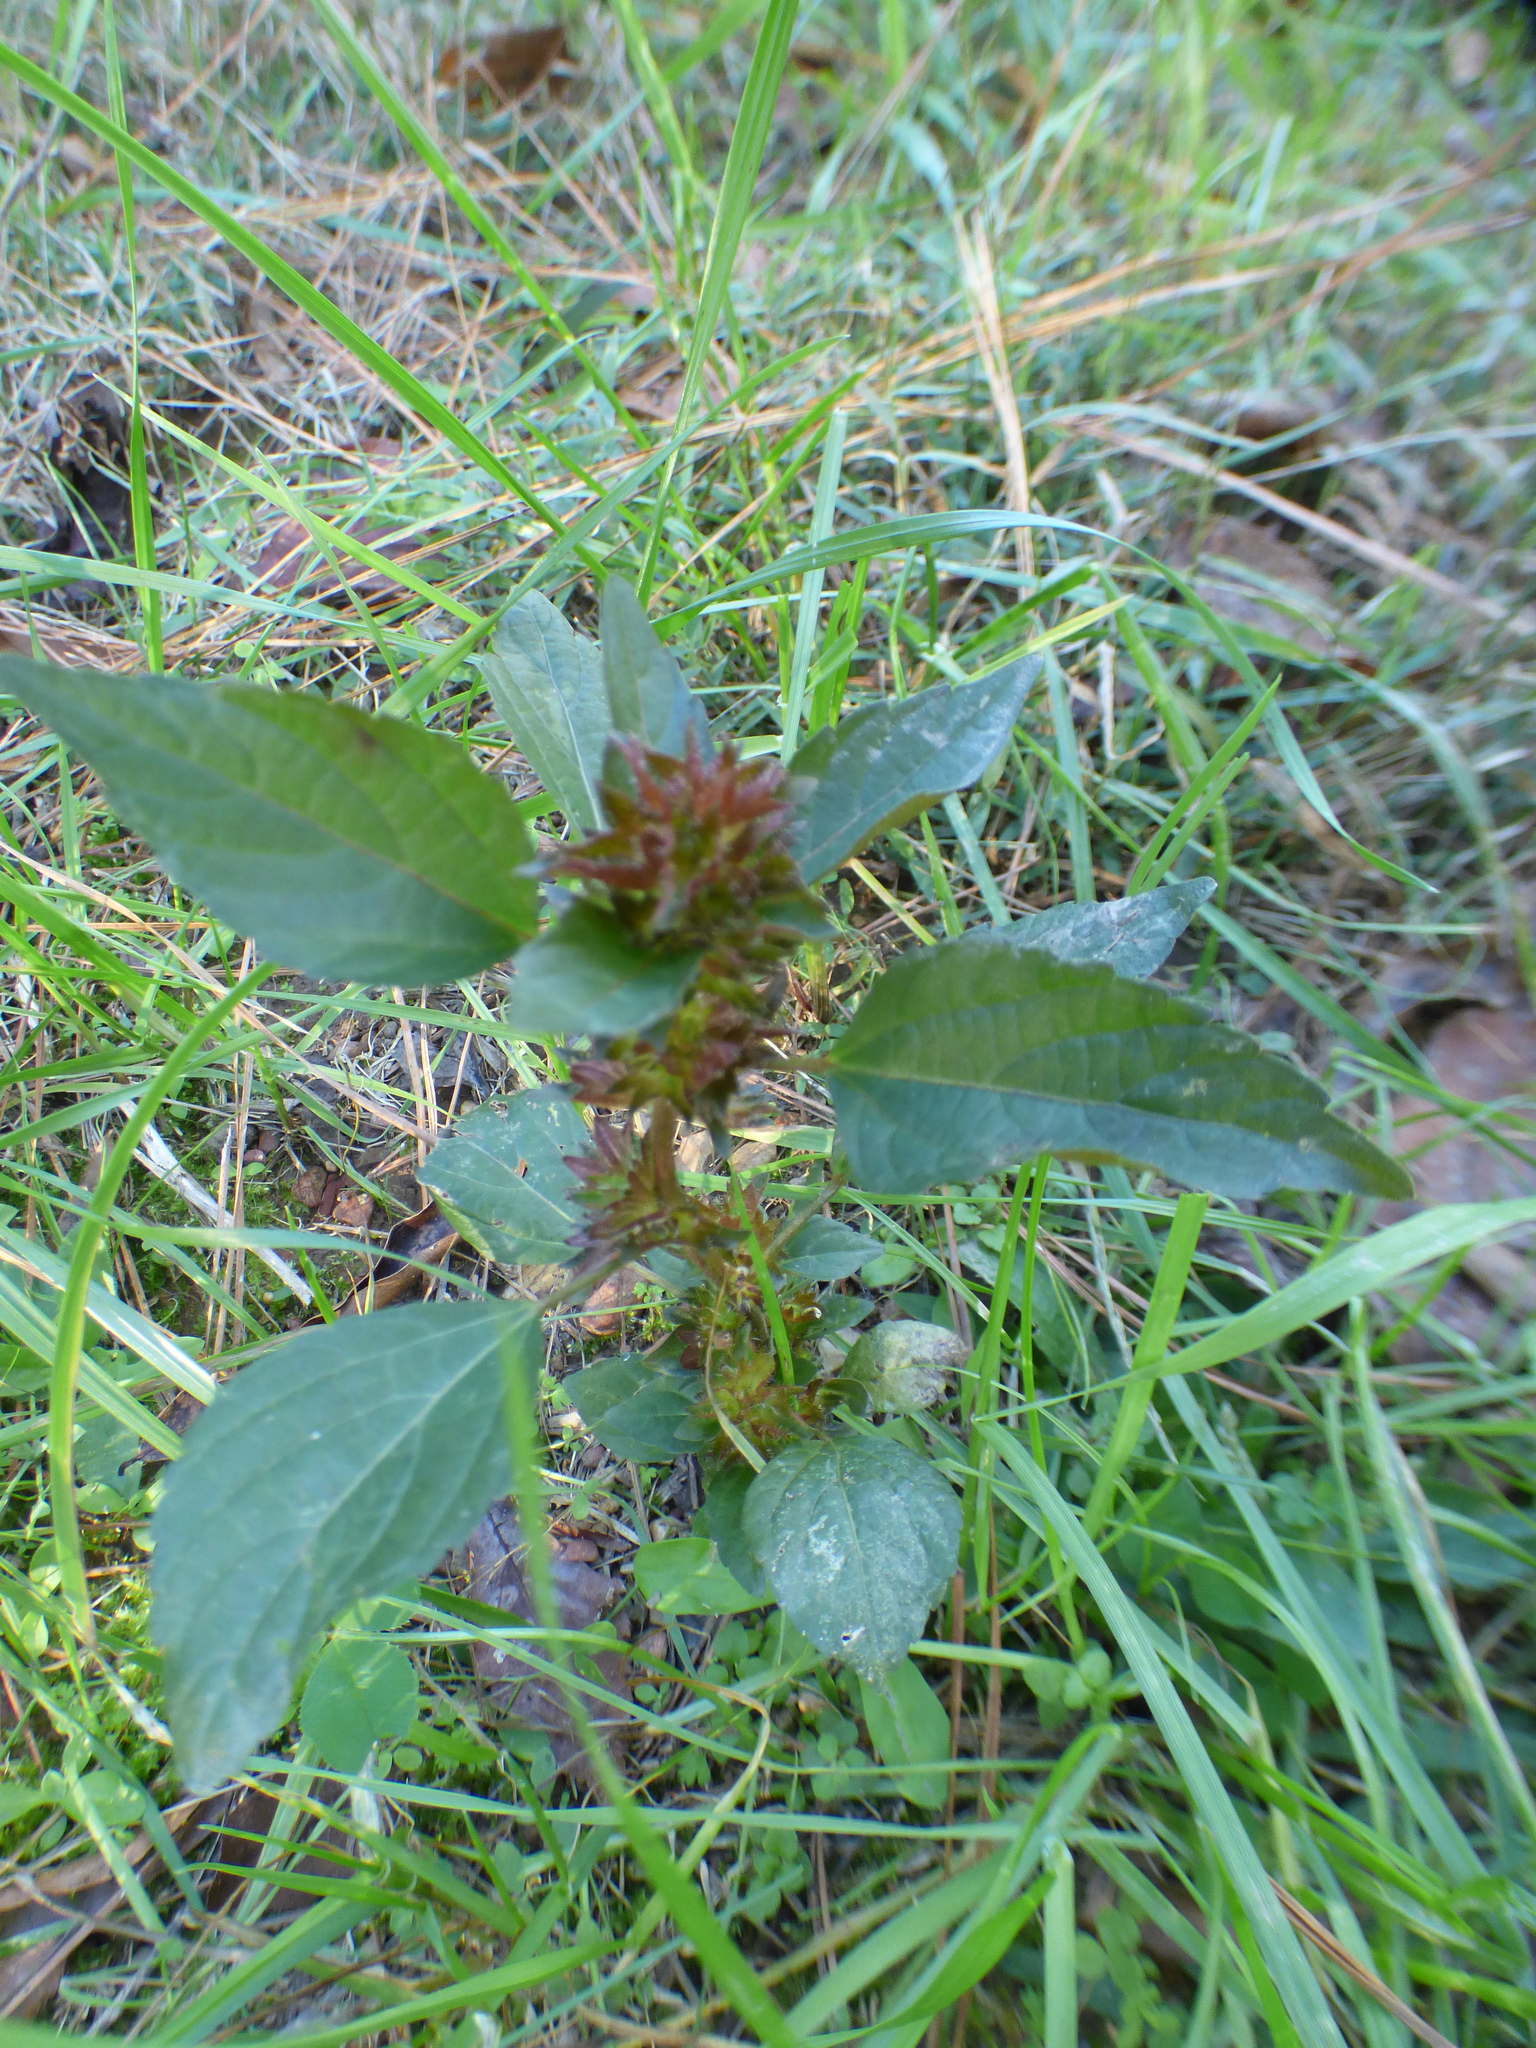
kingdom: Plantae
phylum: Tracheophyta
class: Magnoliopsida
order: Malpighiales
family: Euphorbiaceae
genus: Acalypha
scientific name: Acalypha rhomboidea
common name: Rhombic copperleaf
